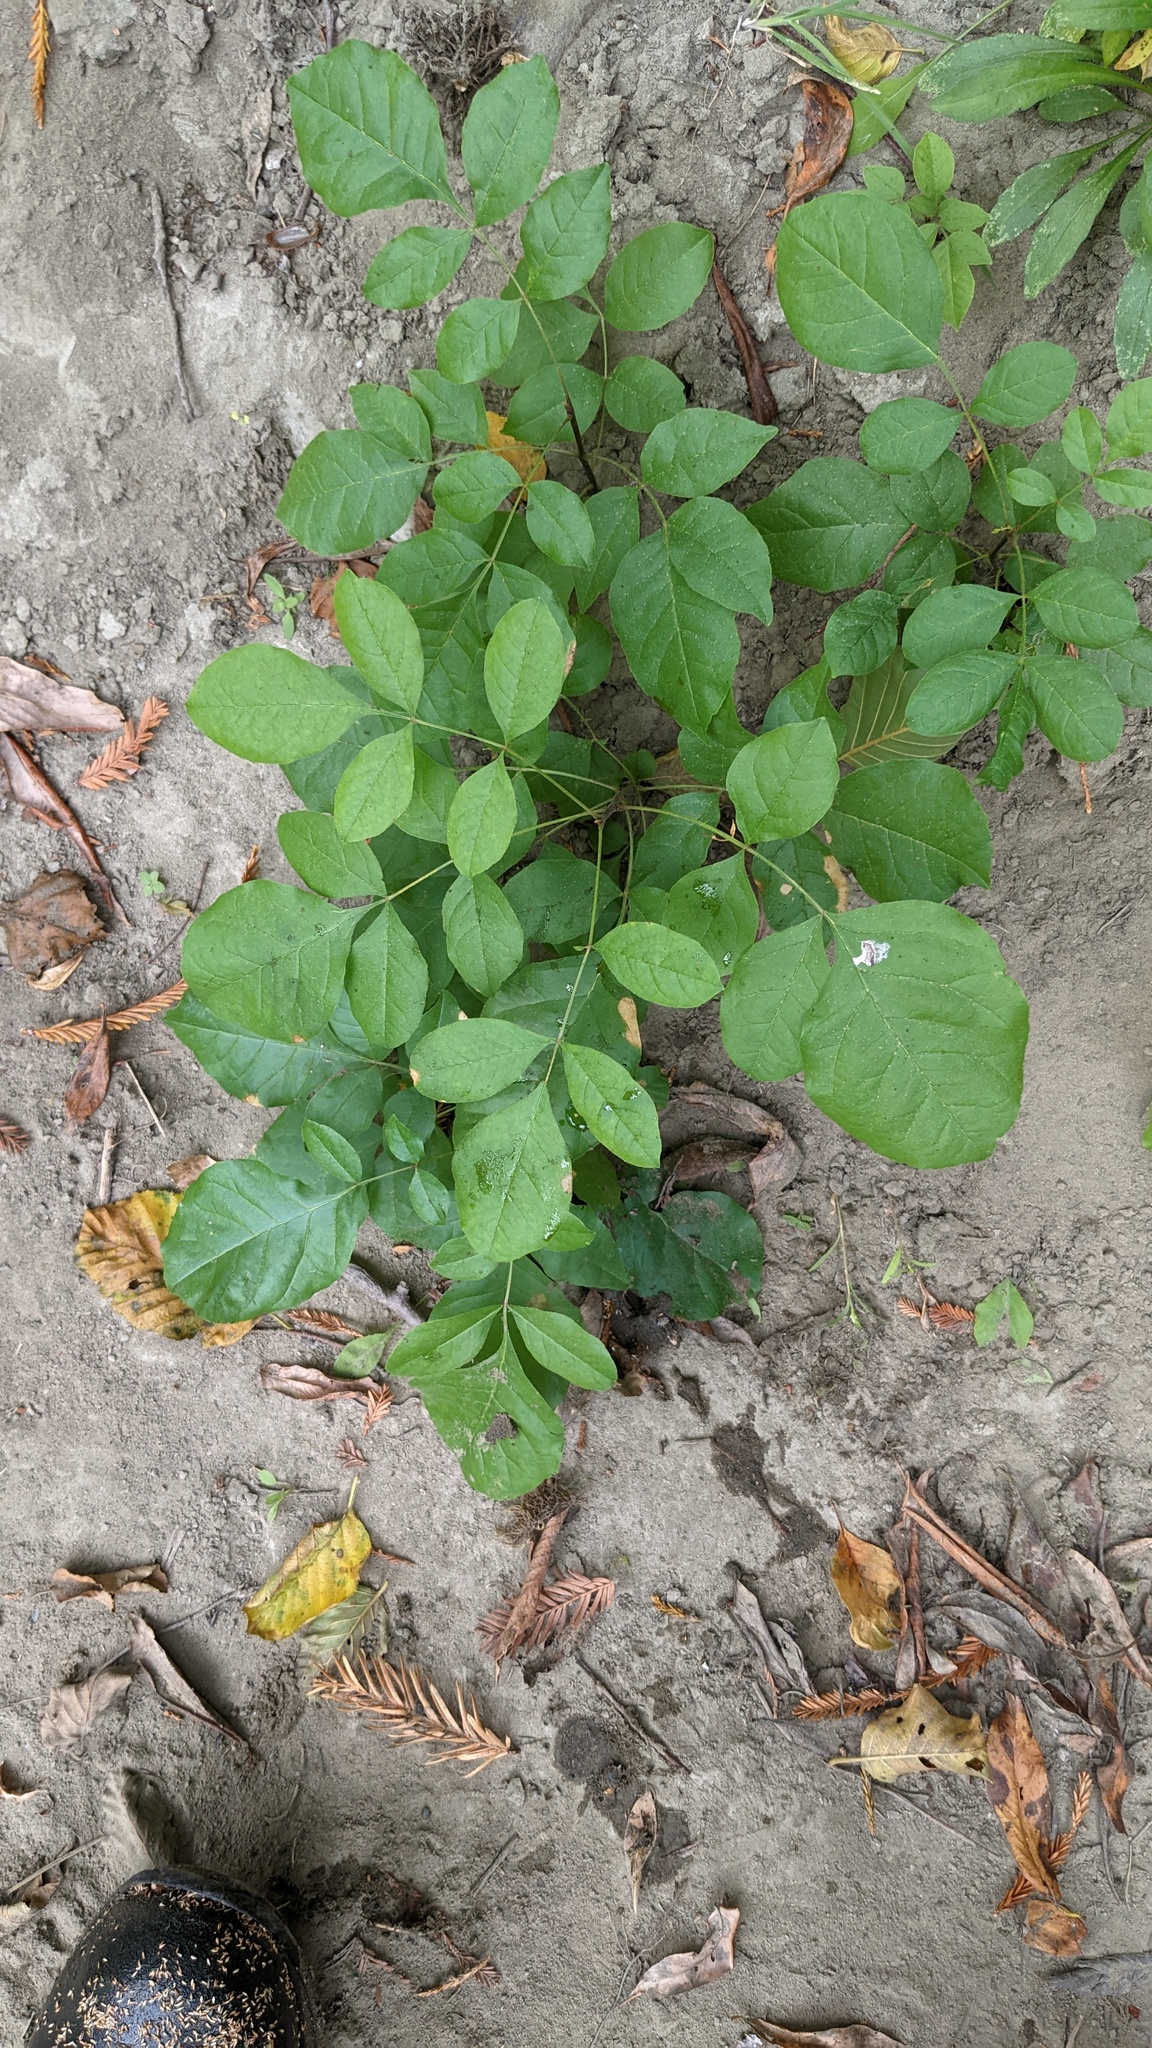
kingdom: Plantae
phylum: Tracheophyta
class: Magnoliopsida
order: Lamiales
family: Oleaceae
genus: Fraxinus
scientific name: Fraxinus latifolia
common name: Oregon ash
